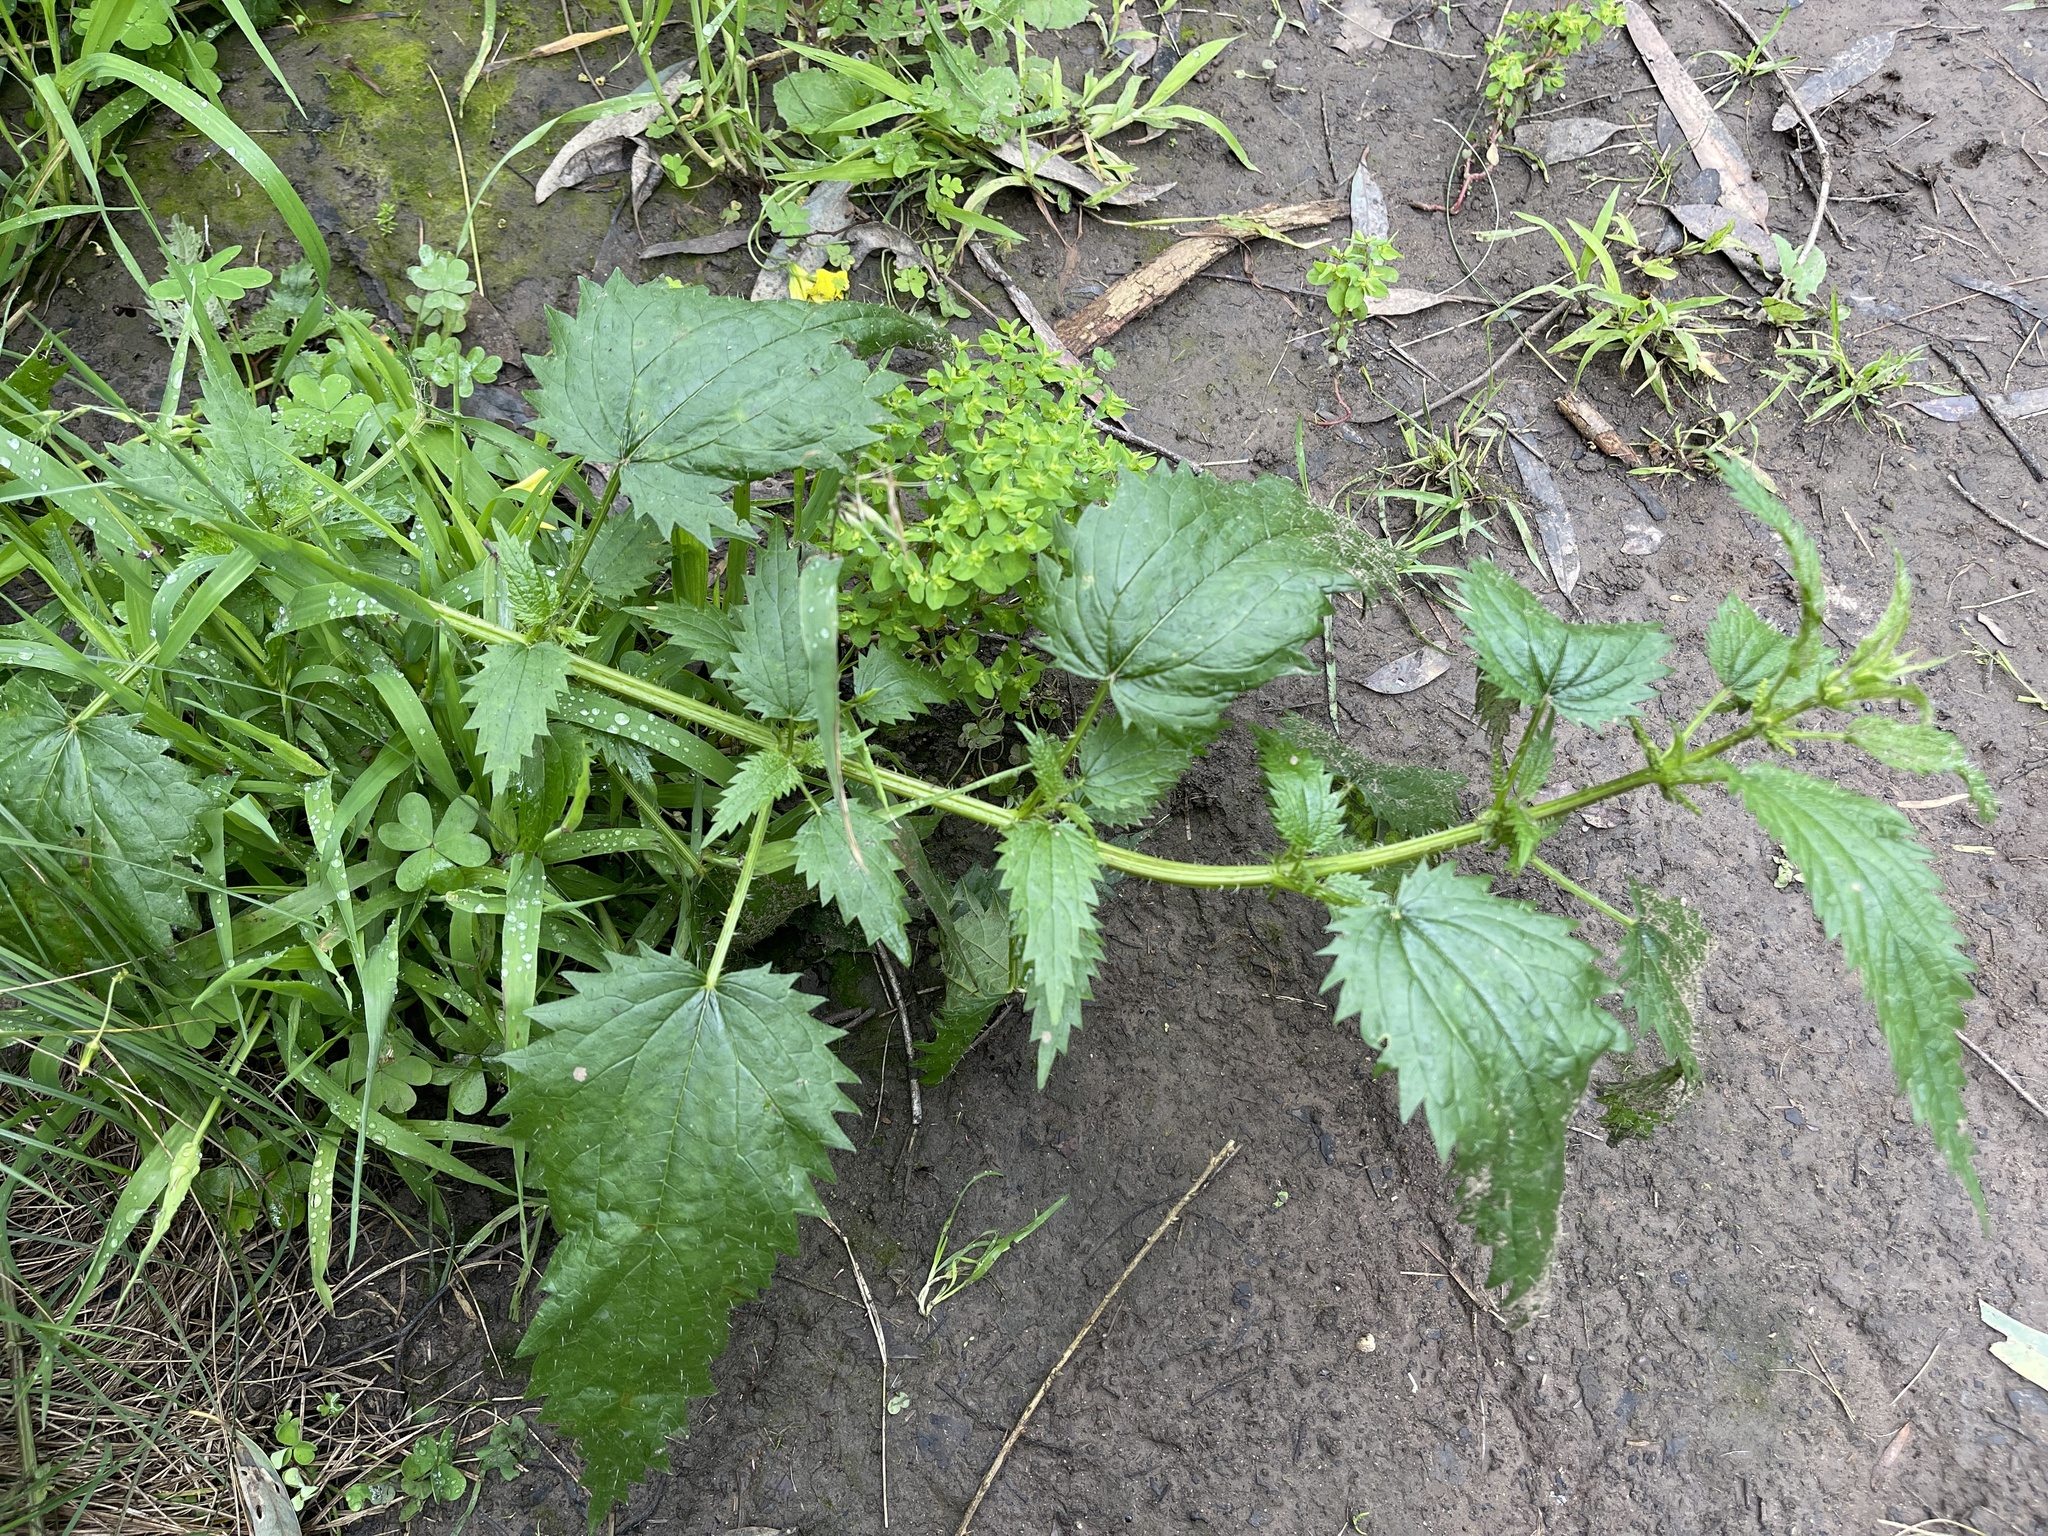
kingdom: Plantae
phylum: Tracheophyta
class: Magnoliopsida
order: Rosales
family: Urticaceae
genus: Urtica
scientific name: Urtica incisa
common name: Scrub nettle
